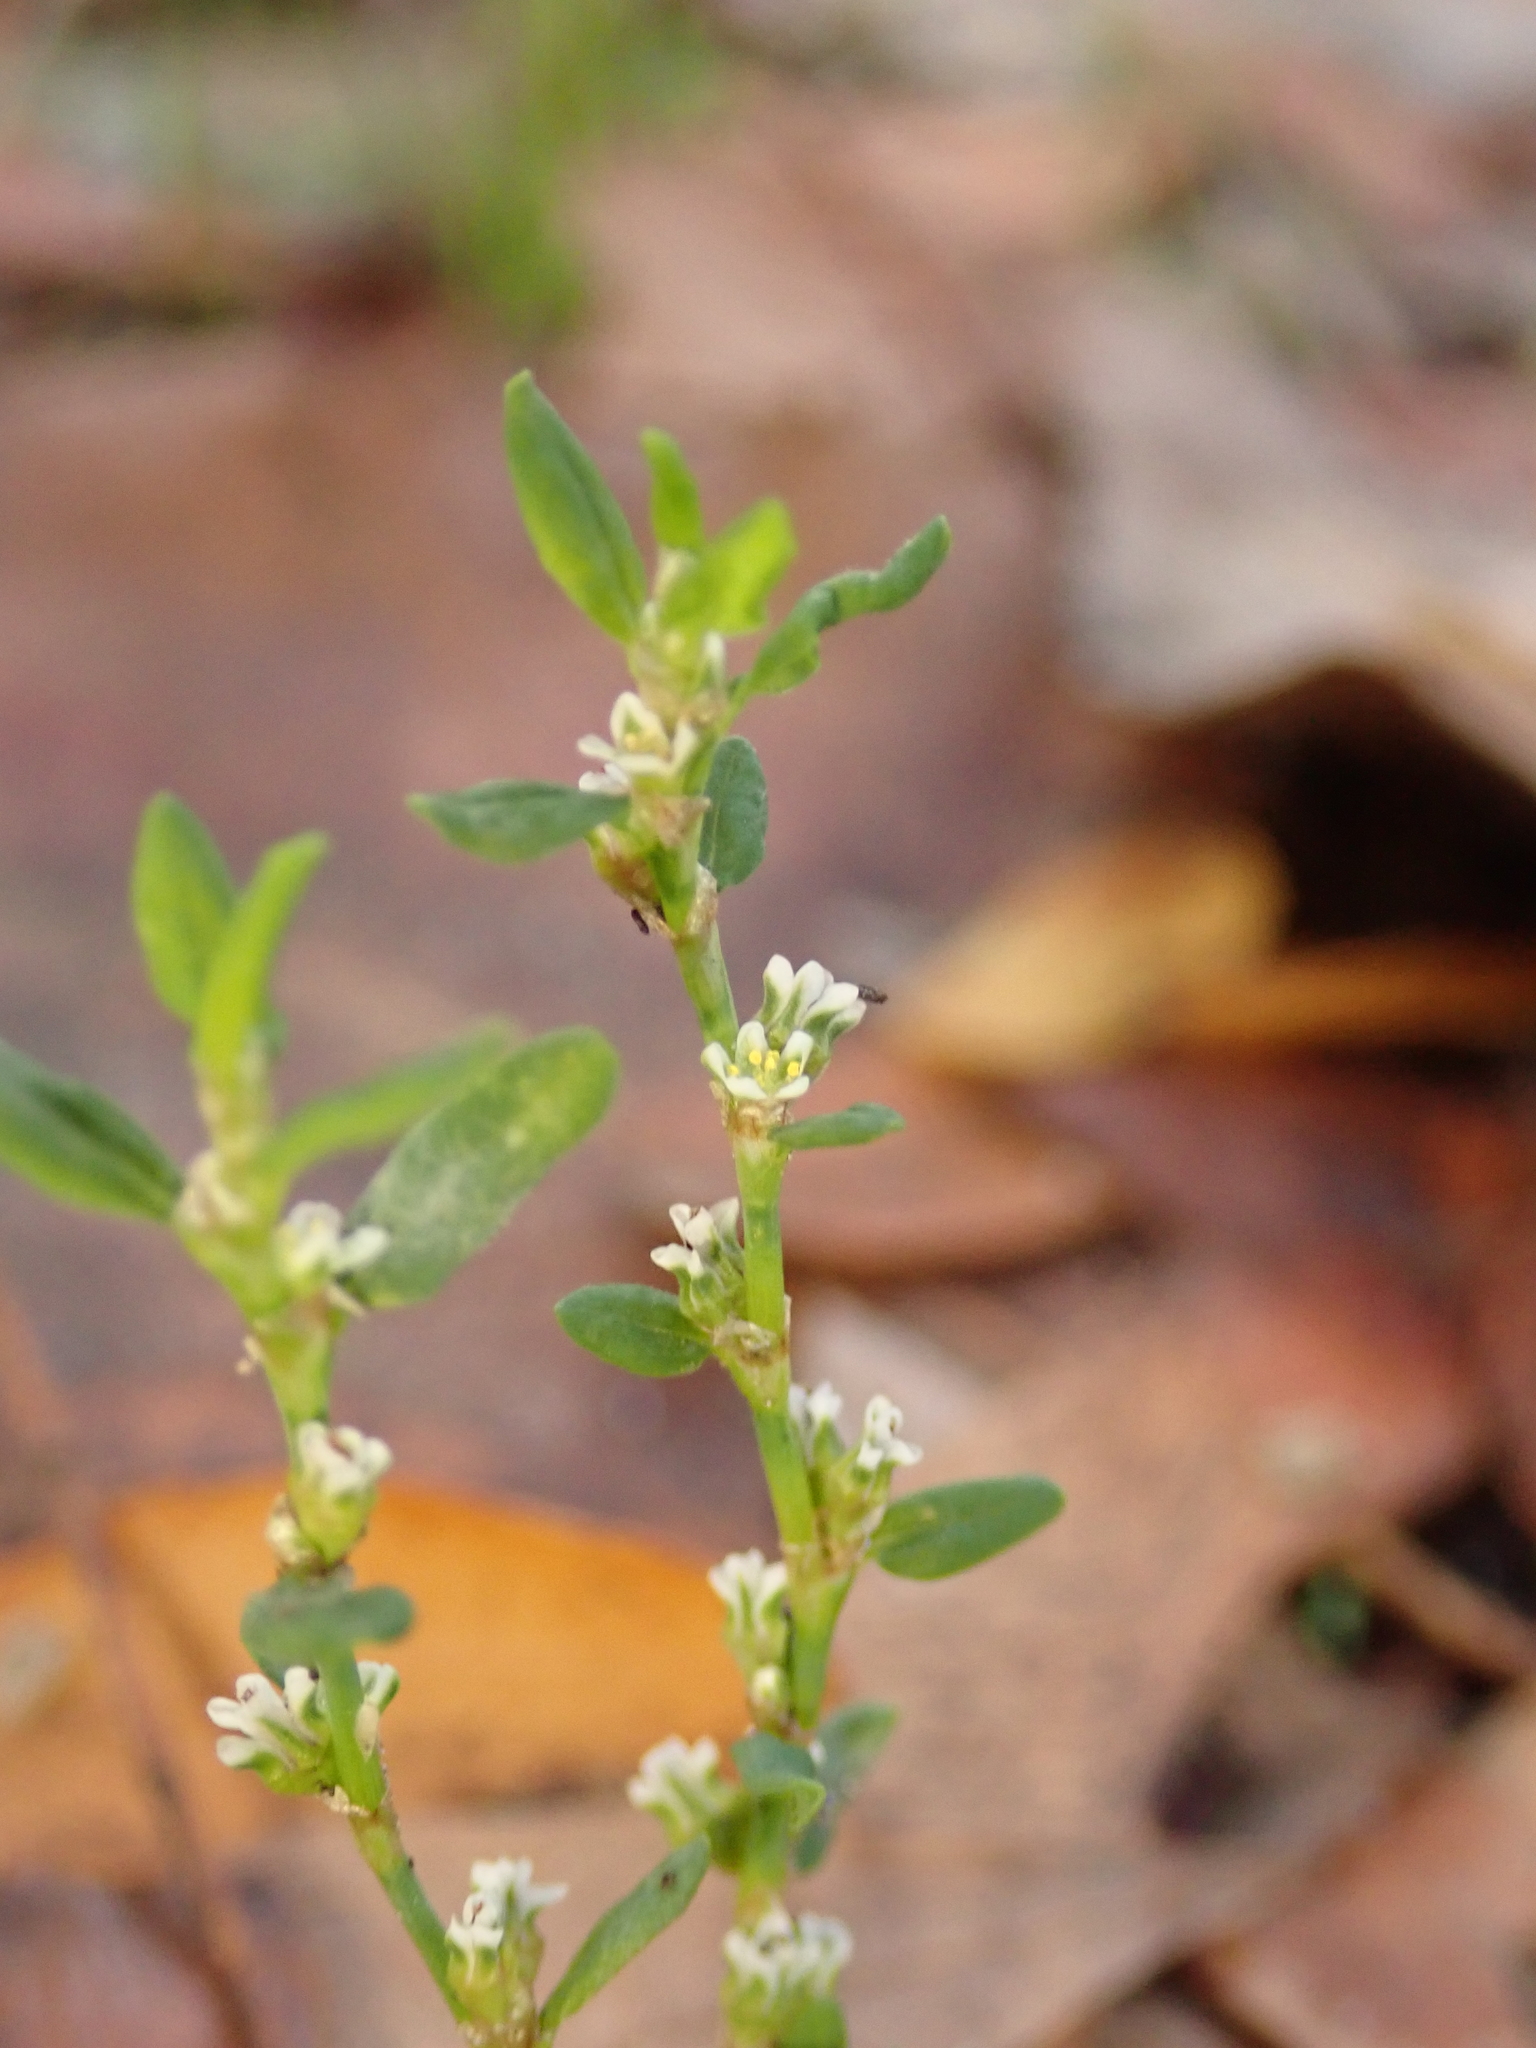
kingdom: Plantae
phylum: Tracheophyta
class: Magnoliopsida
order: Caryophyllales
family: Polygonaceae
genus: Polygonum
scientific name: Polygonum aviculare
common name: Prostrate knotweed
